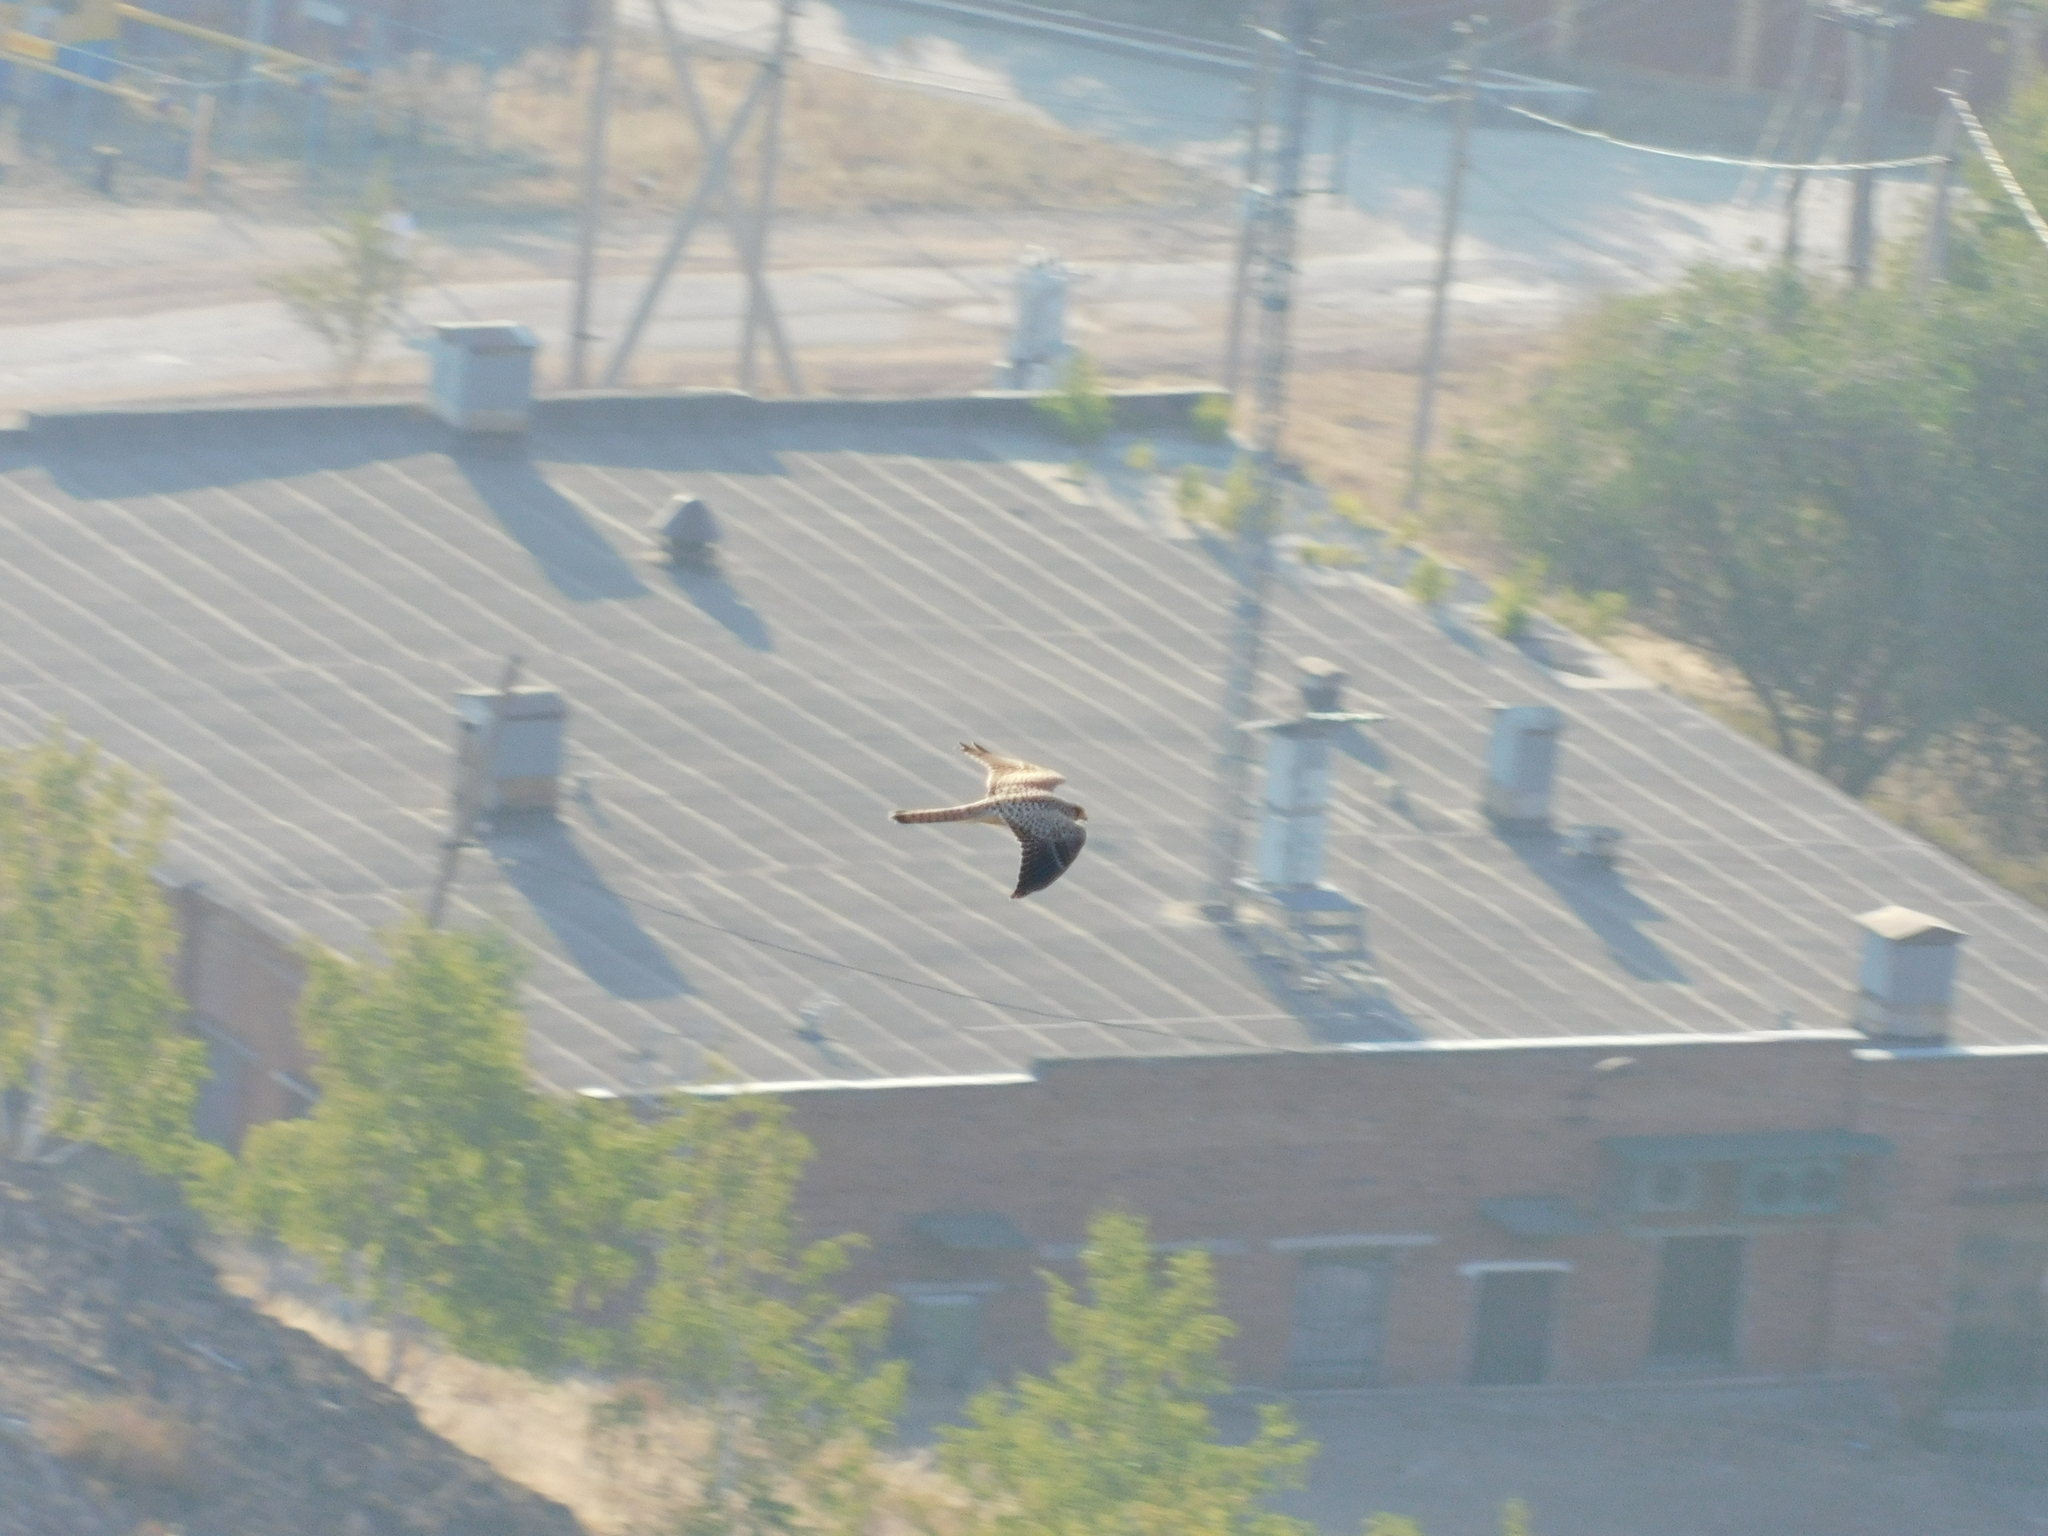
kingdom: Animalia
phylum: Chordata
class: Aves
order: Falconiformes
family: Falconidae
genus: Falco
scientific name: Falco tinnunculus
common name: Common kestrel
